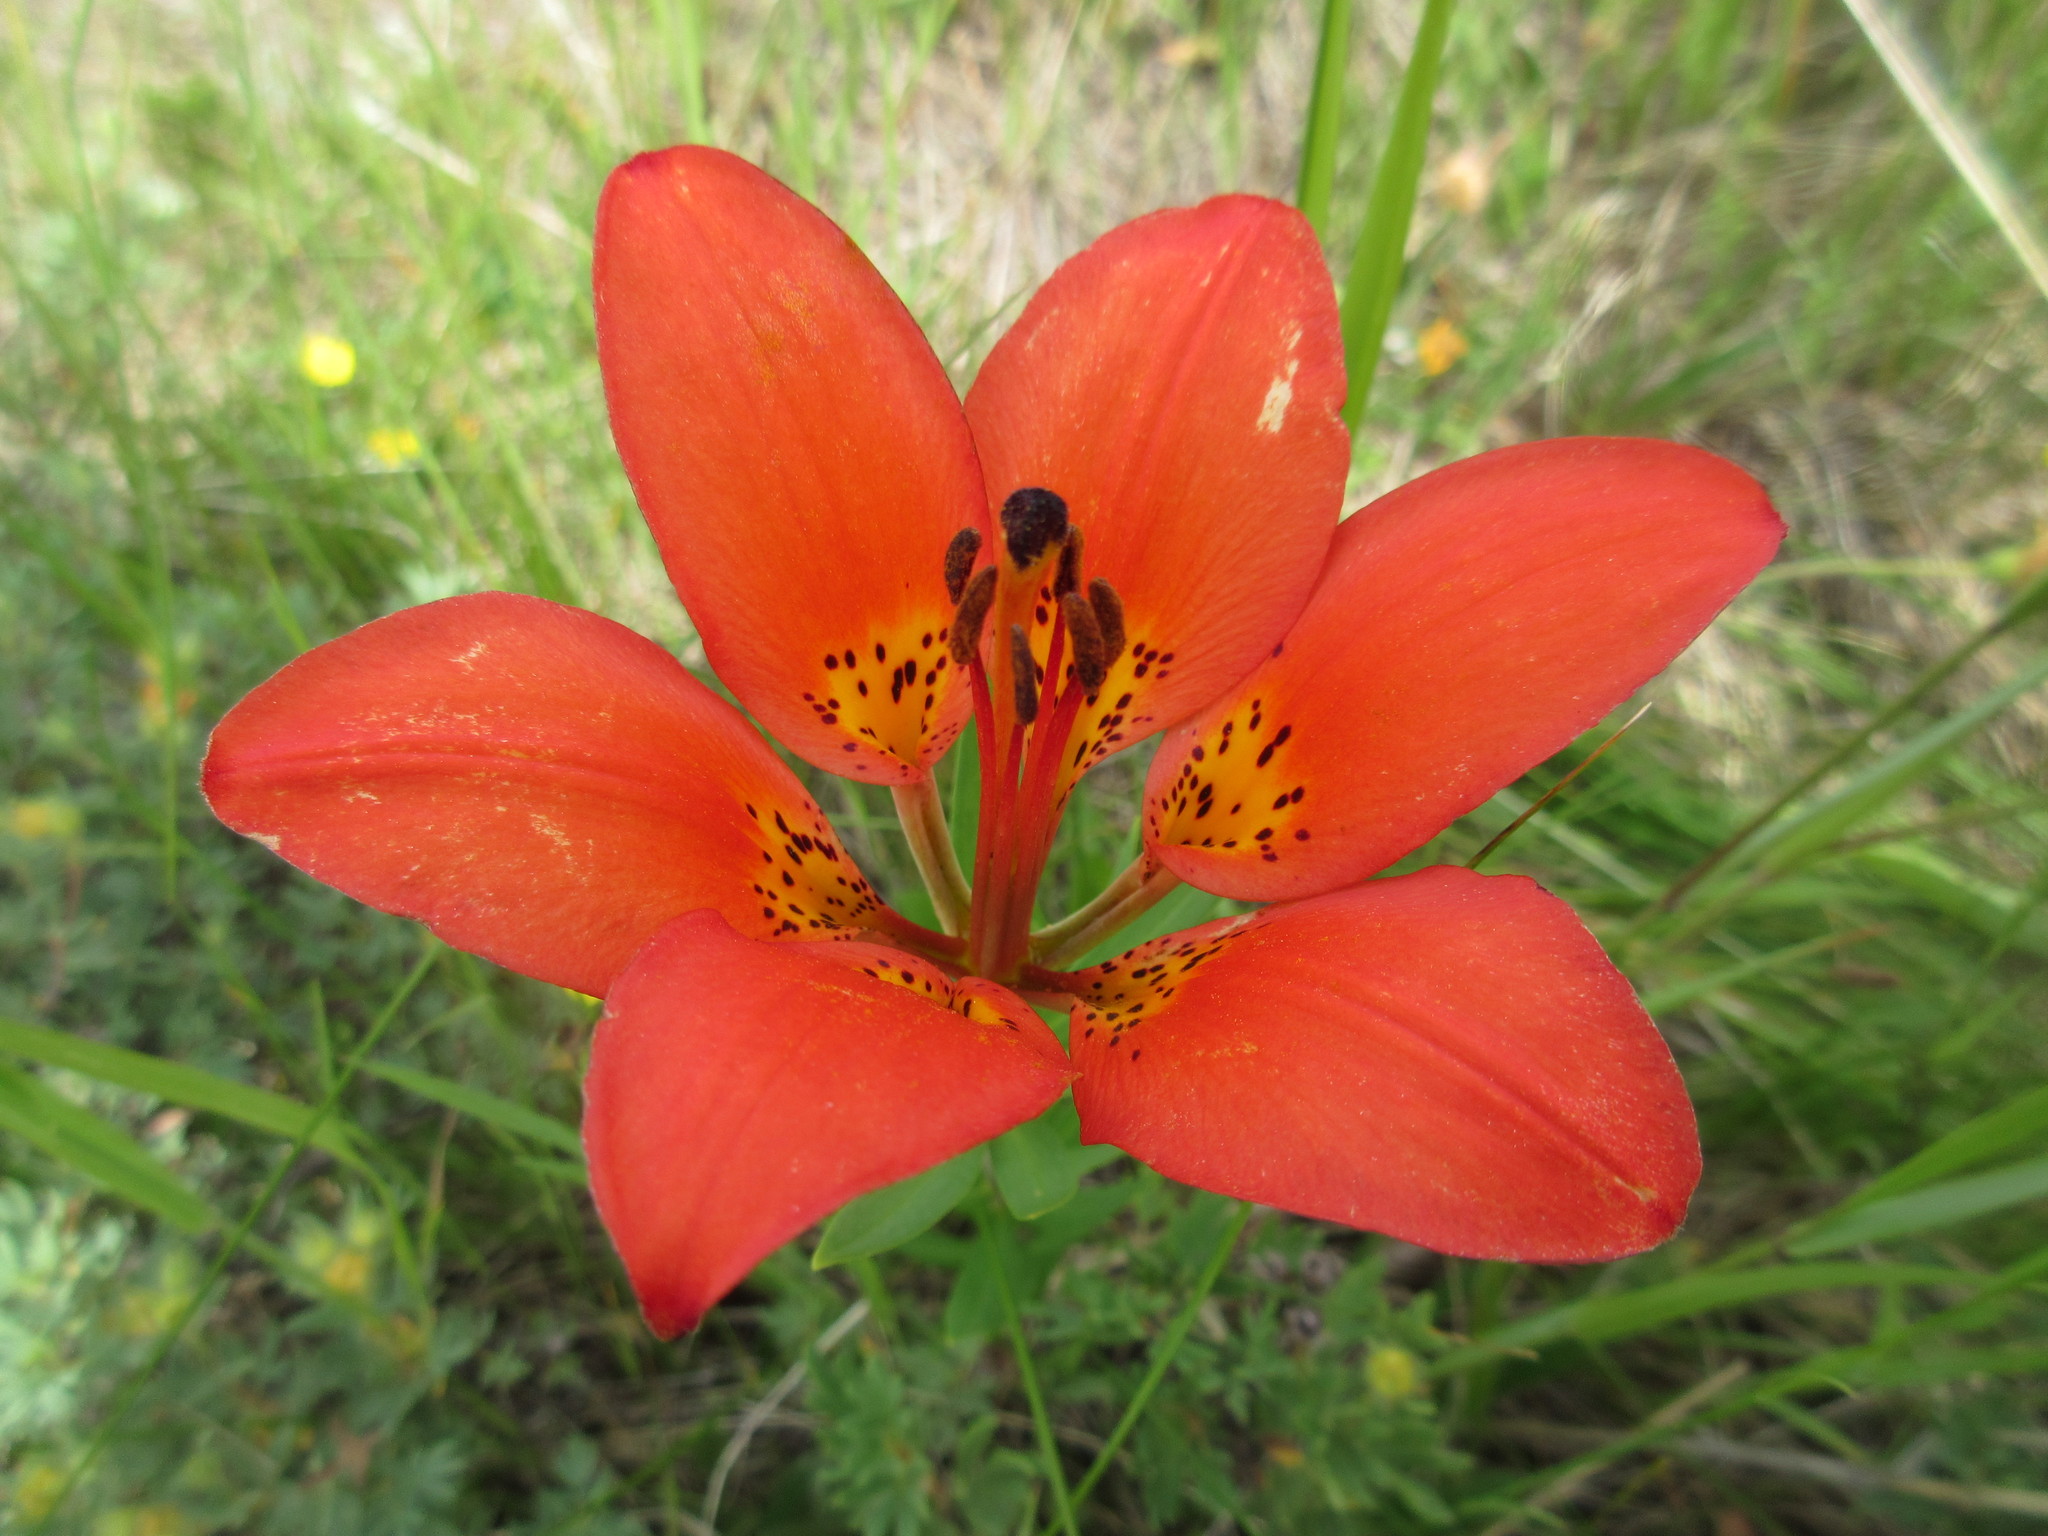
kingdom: Plantae
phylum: Tracheophyta
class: Liliopsida
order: Liliales
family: Liliaceae
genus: Lilium
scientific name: Lilium philadelphicum
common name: Red lily
